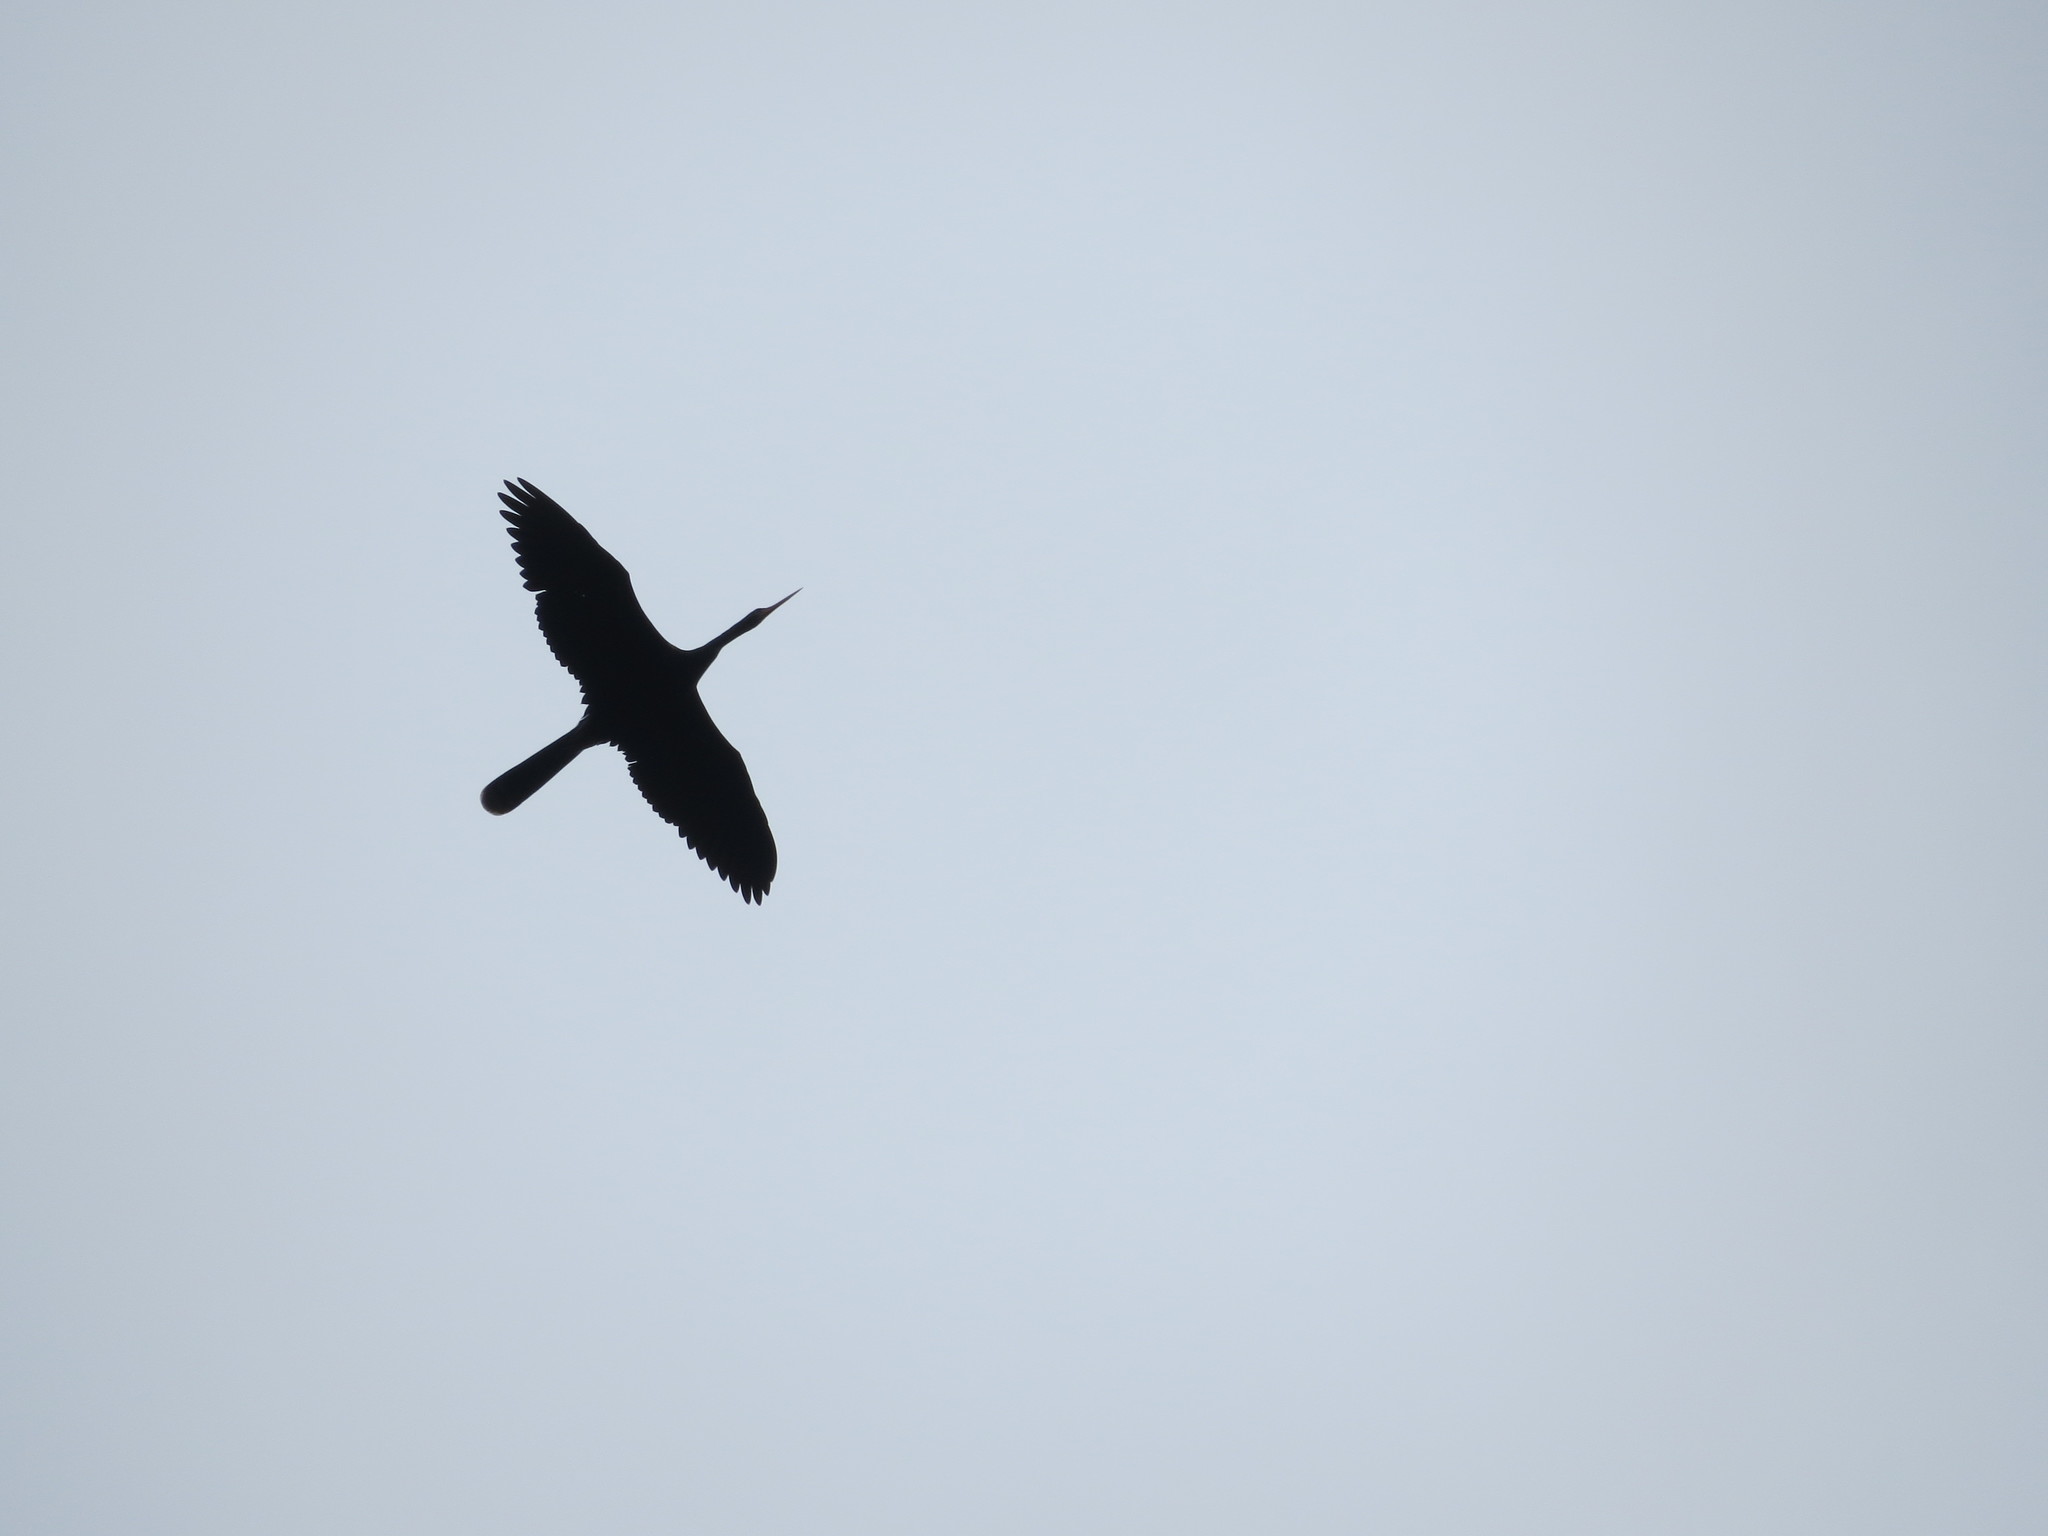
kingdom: Animalia
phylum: Chordata
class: Aves
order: Suliformes
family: Anhingidae
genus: Anhinga
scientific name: Anhinga anhinga
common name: Anhinga
